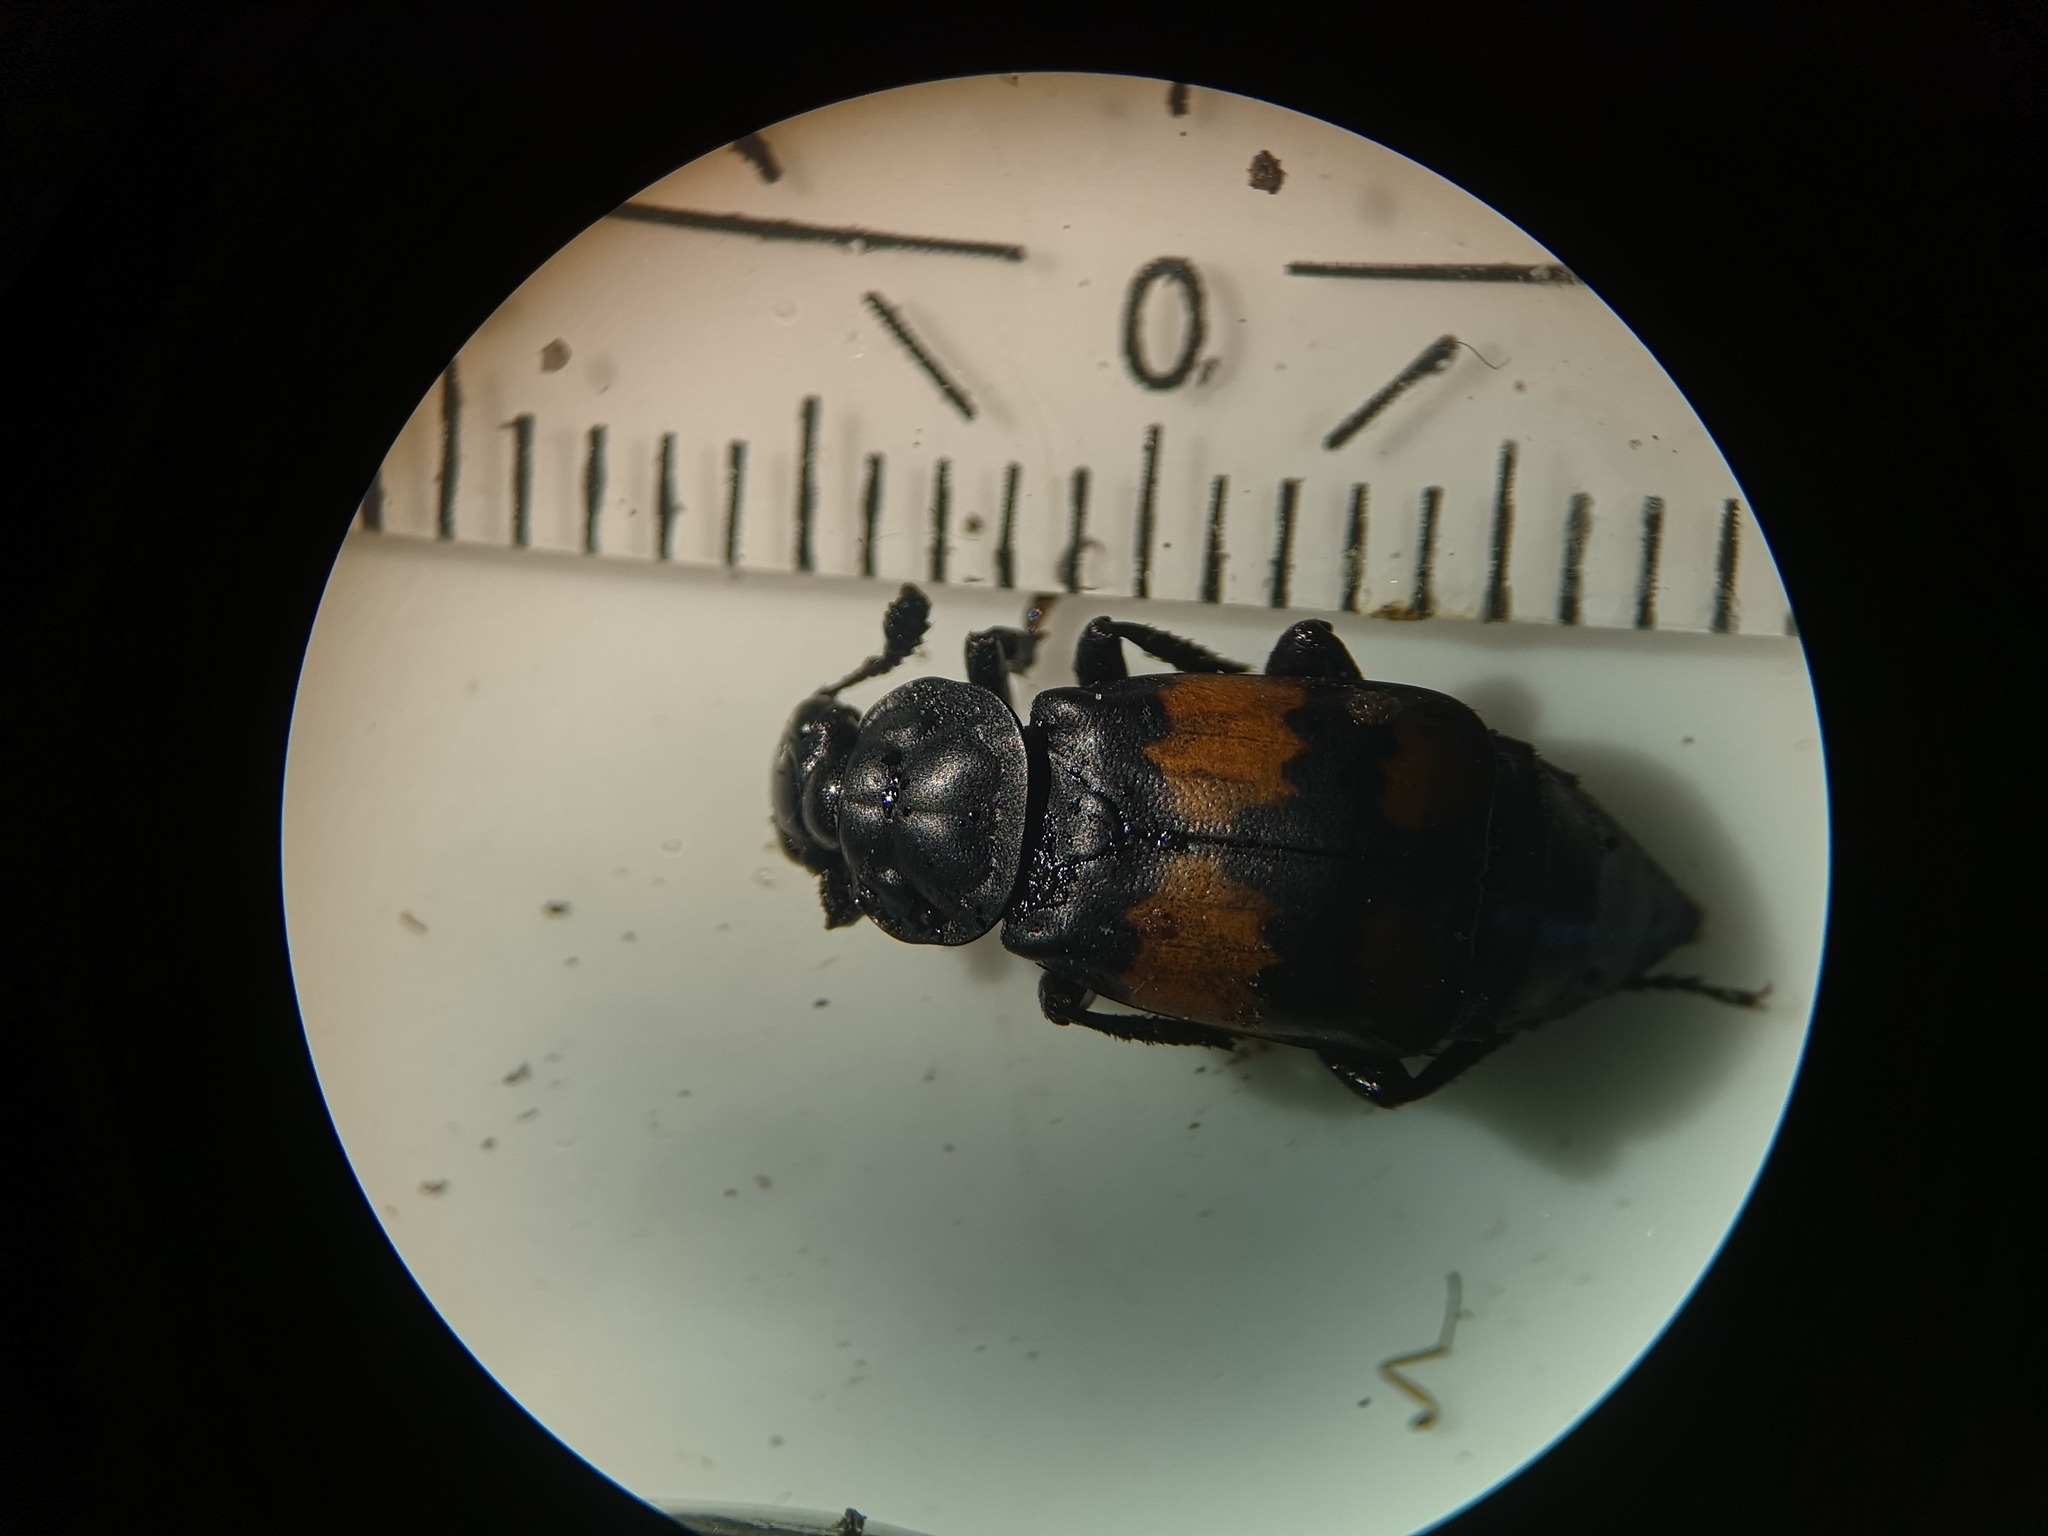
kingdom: Animalia
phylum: Arthropoda
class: Insecta
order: Coleoptera
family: Staphylinidae
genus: Nicrophorus
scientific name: Nicrophorus vespilloides
